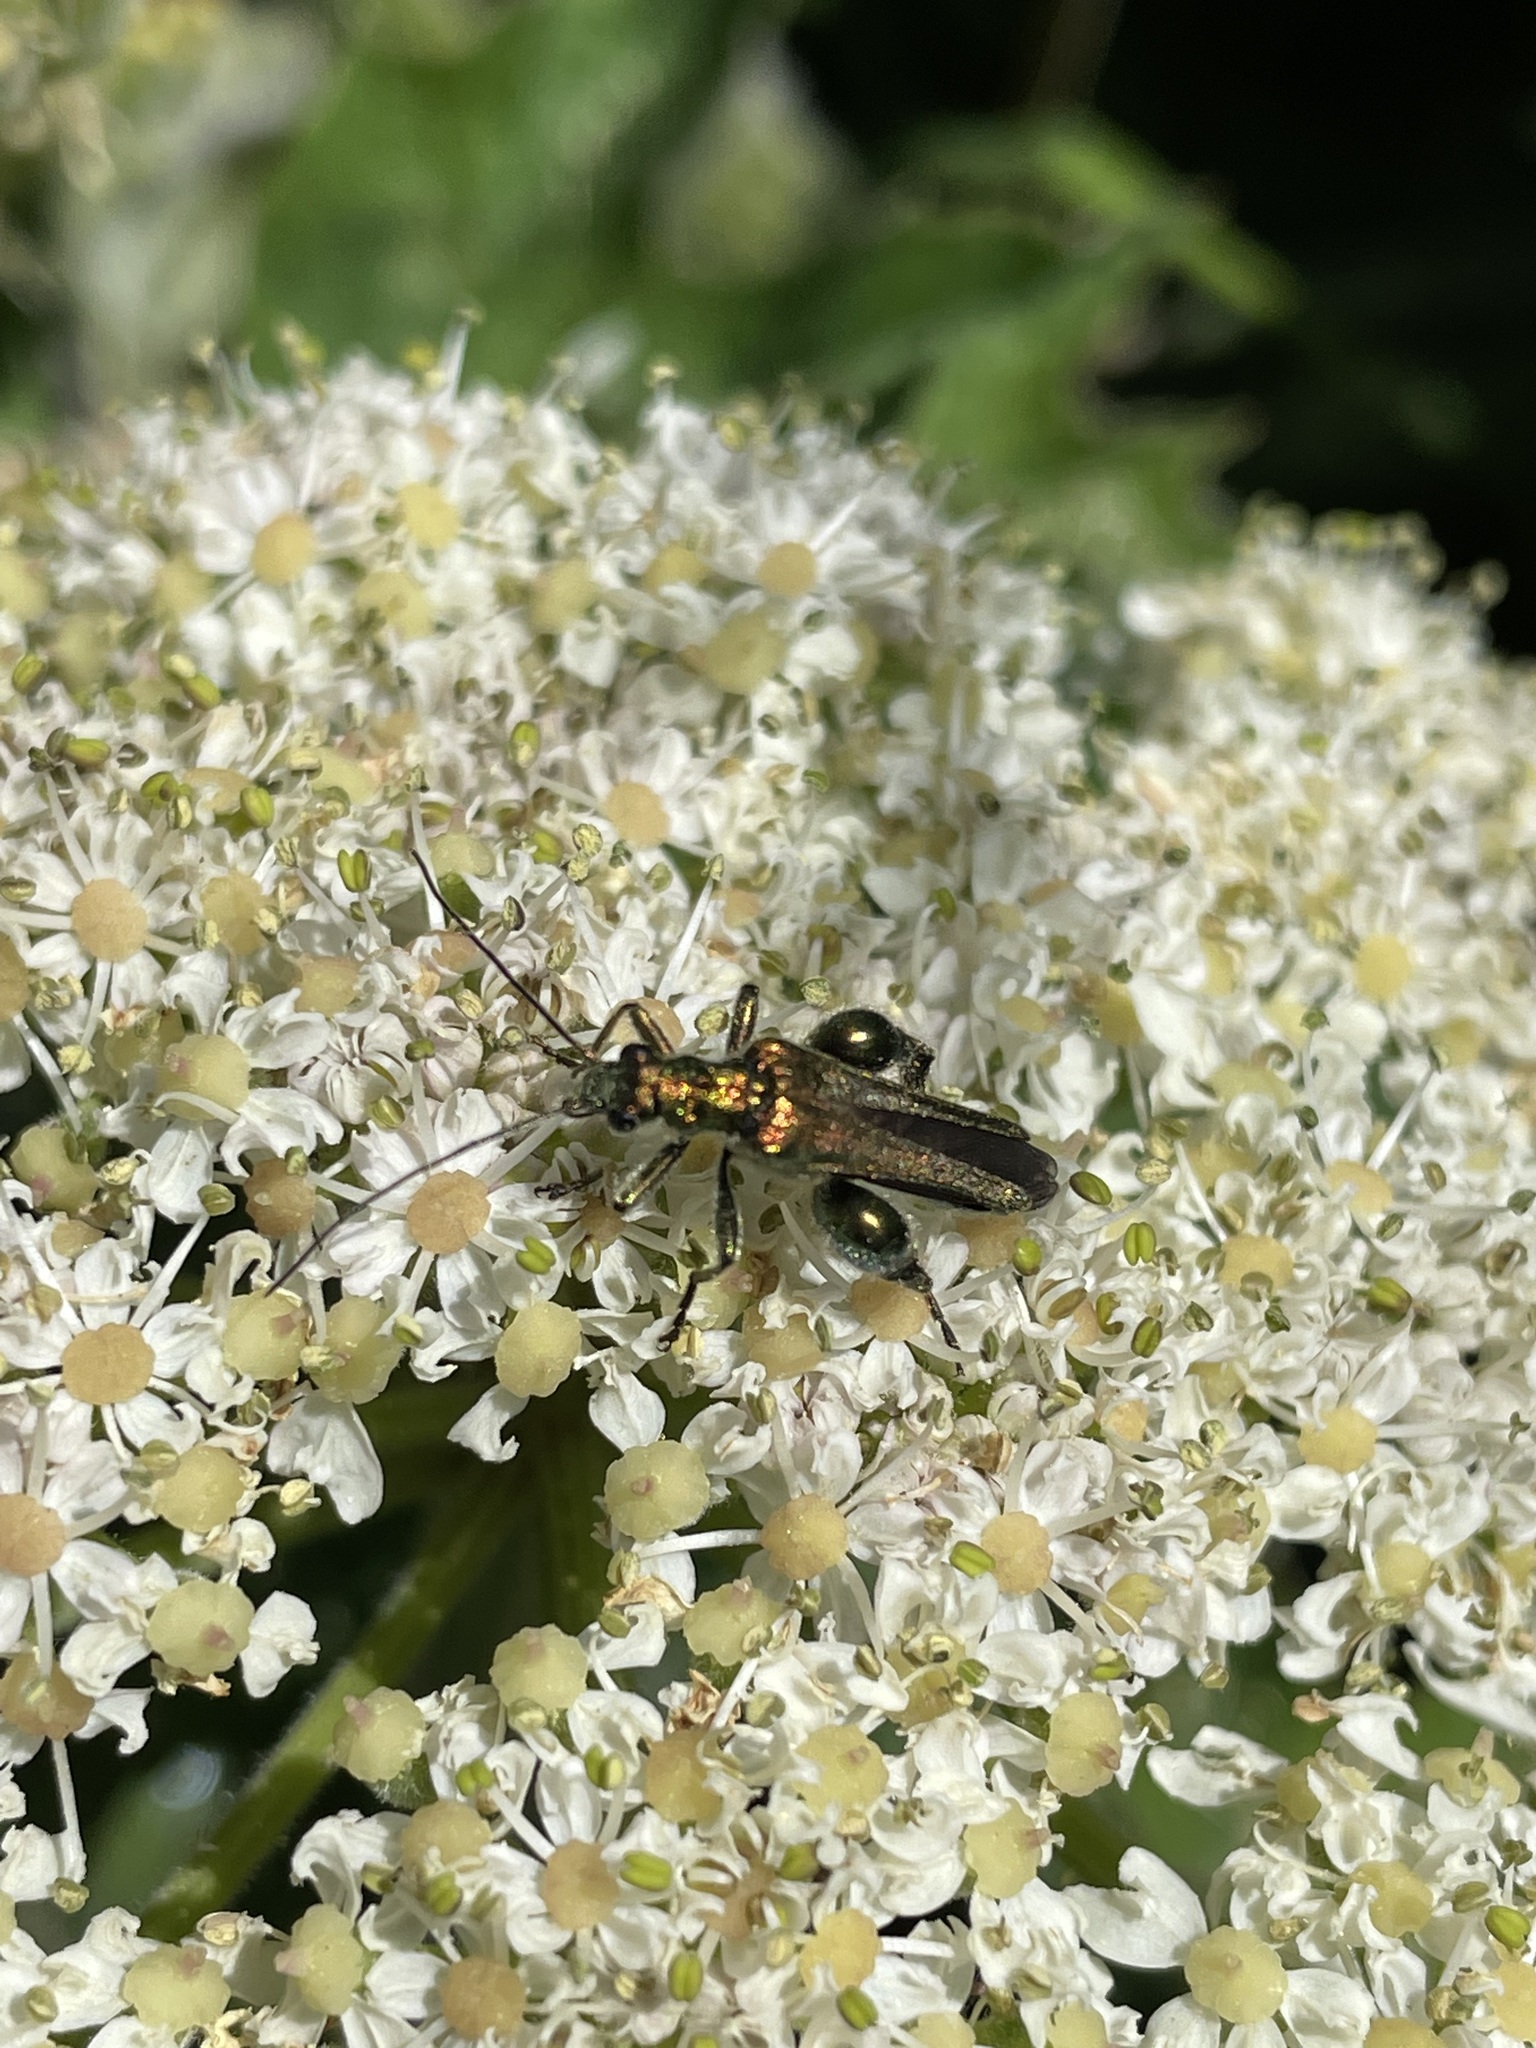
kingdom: Animalia
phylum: Arthropoda
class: Insecta
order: Coleoptera
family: Oedemeridae
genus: Oedemera
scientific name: Oedemera nobilis
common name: Swollen-thighed beetle
